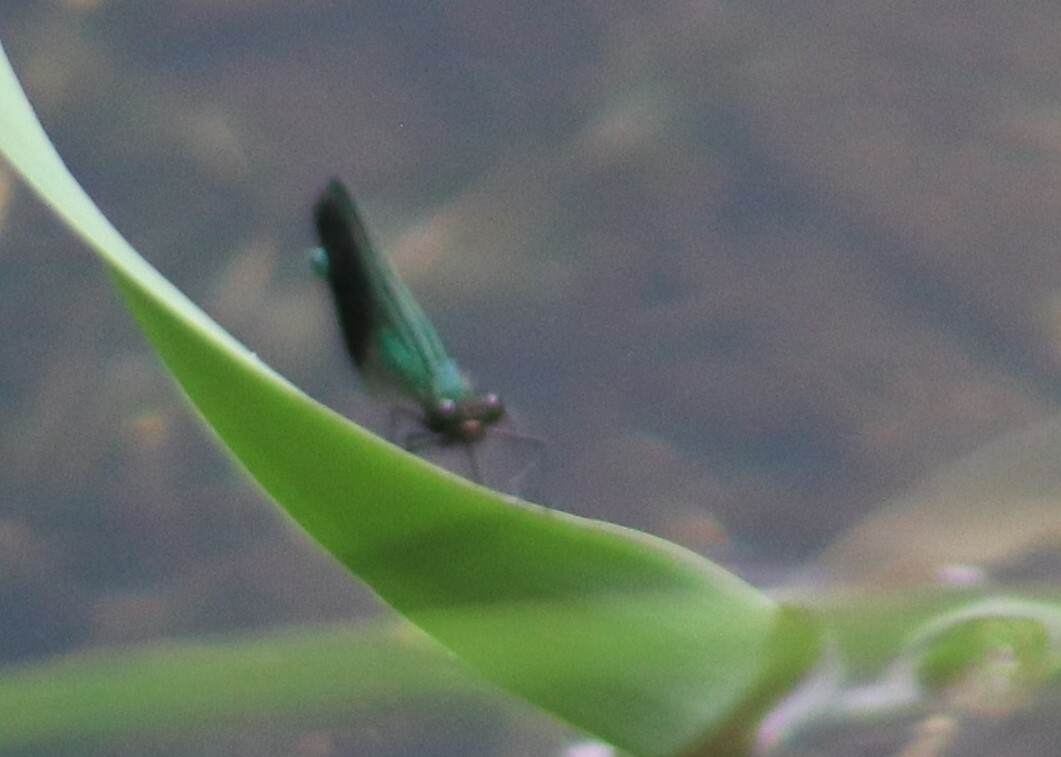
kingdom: Animalia
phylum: Arthropoda
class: Insecta
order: Odonata
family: Calopterygidae
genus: Calopteryx
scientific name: Calopteryx aequabilis
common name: River jewelwing
